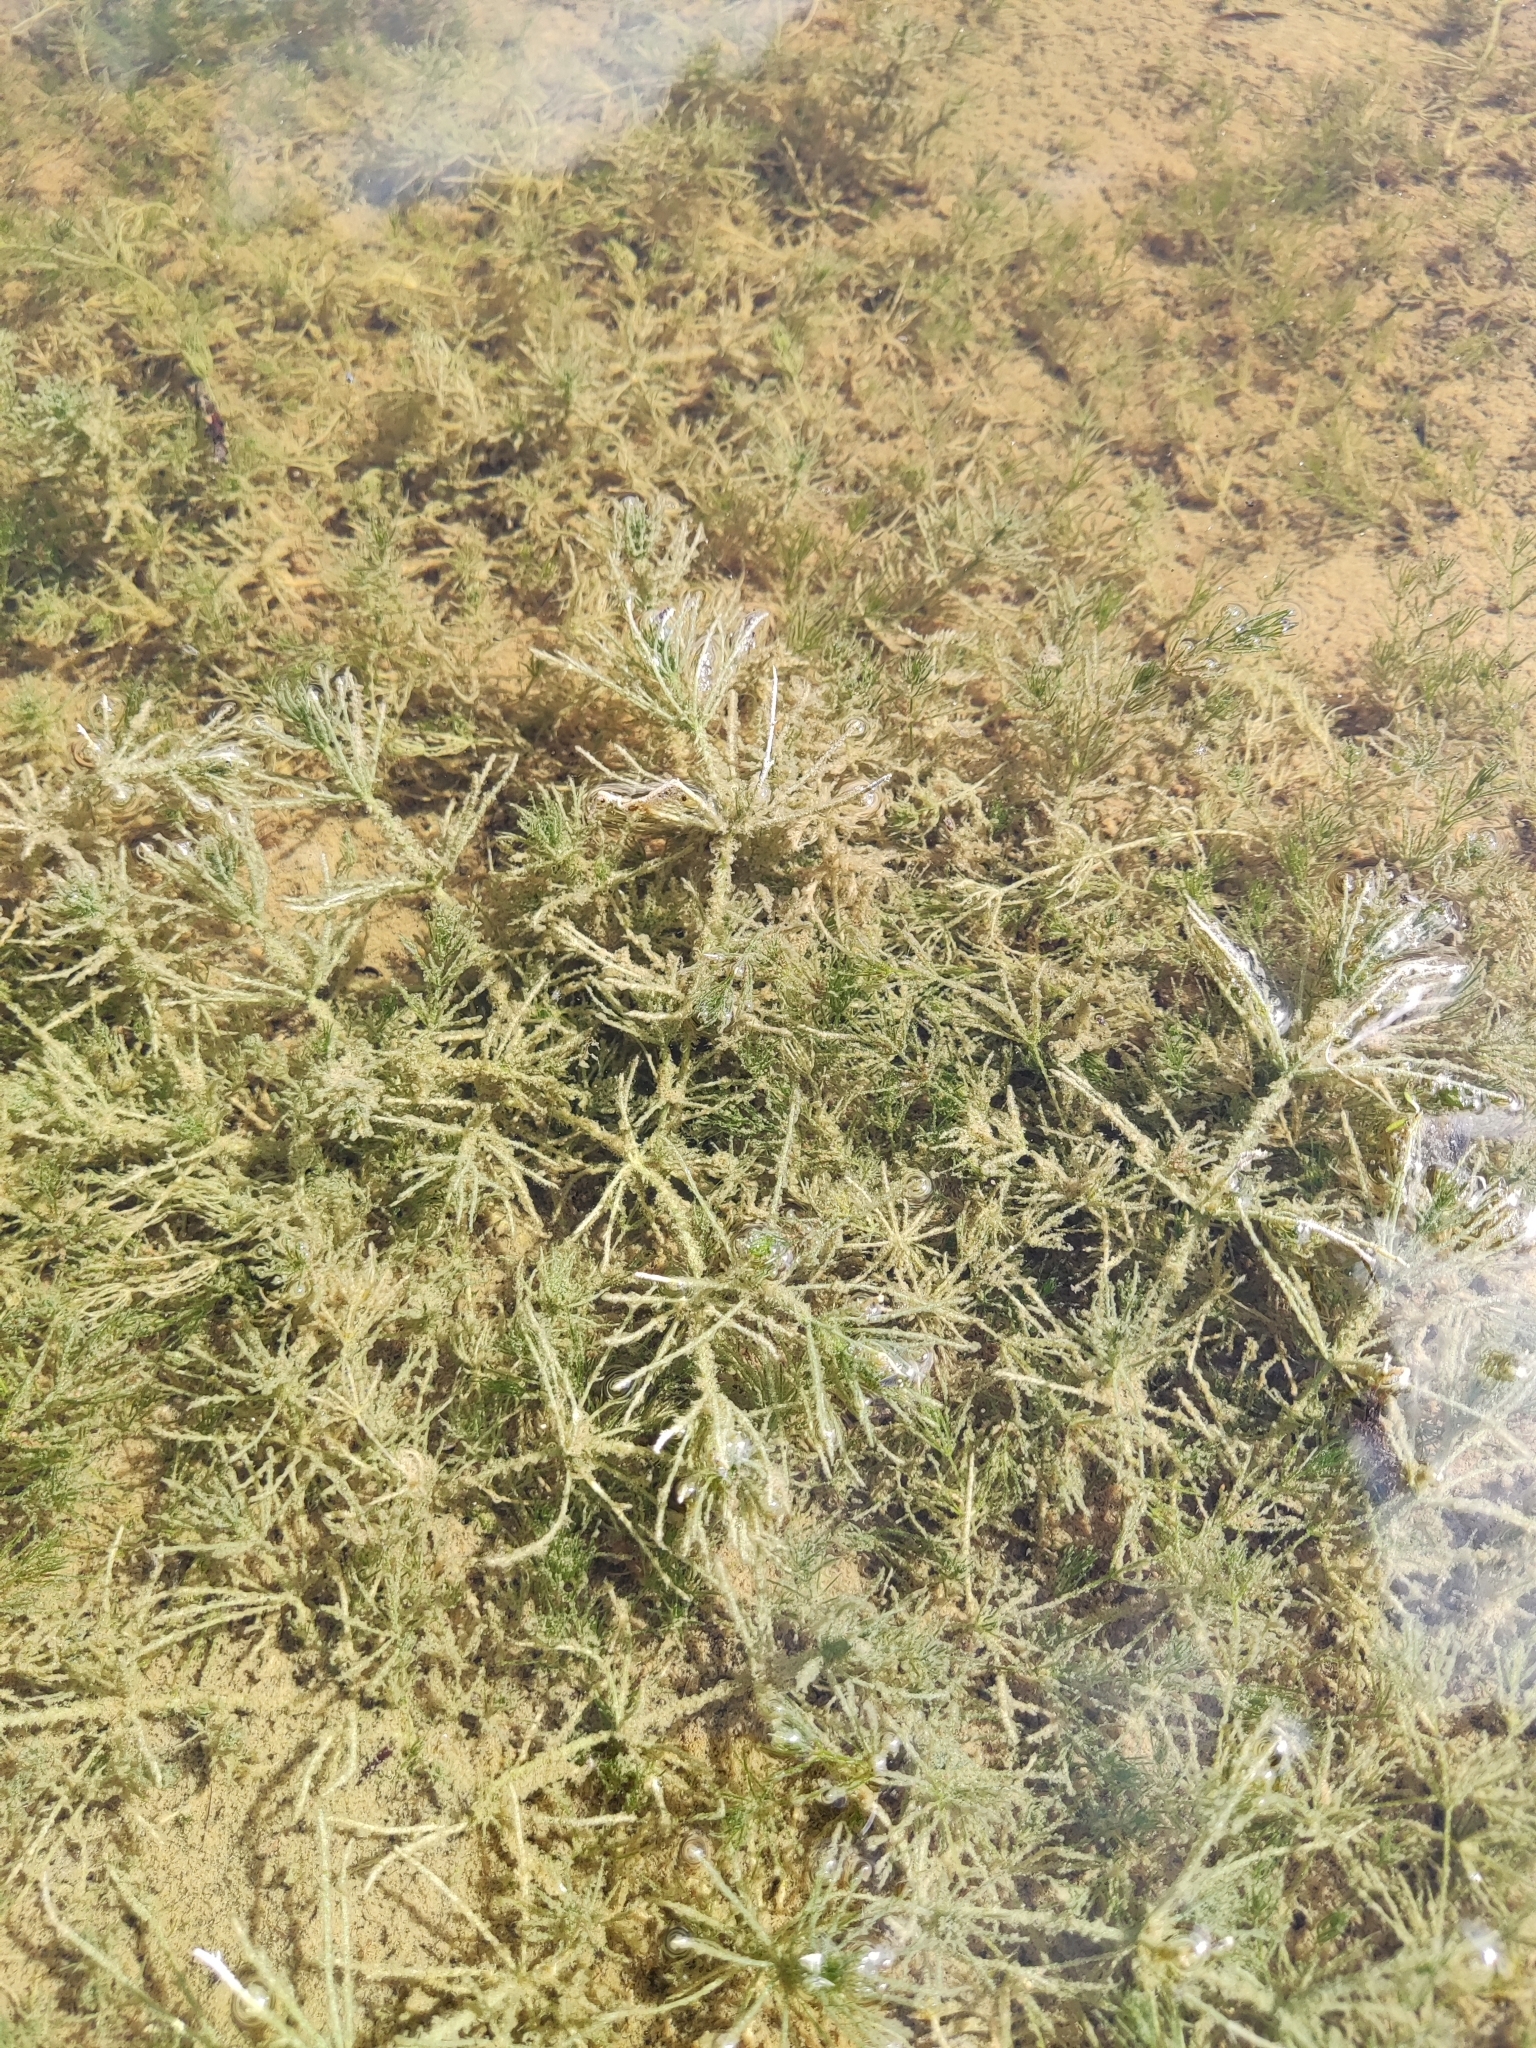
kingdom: Plantae
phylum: Charophyta
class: Charophyceae
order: Charales
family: Characeae
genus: Chara
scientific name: Chara hispida
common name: Bristly stonewort
